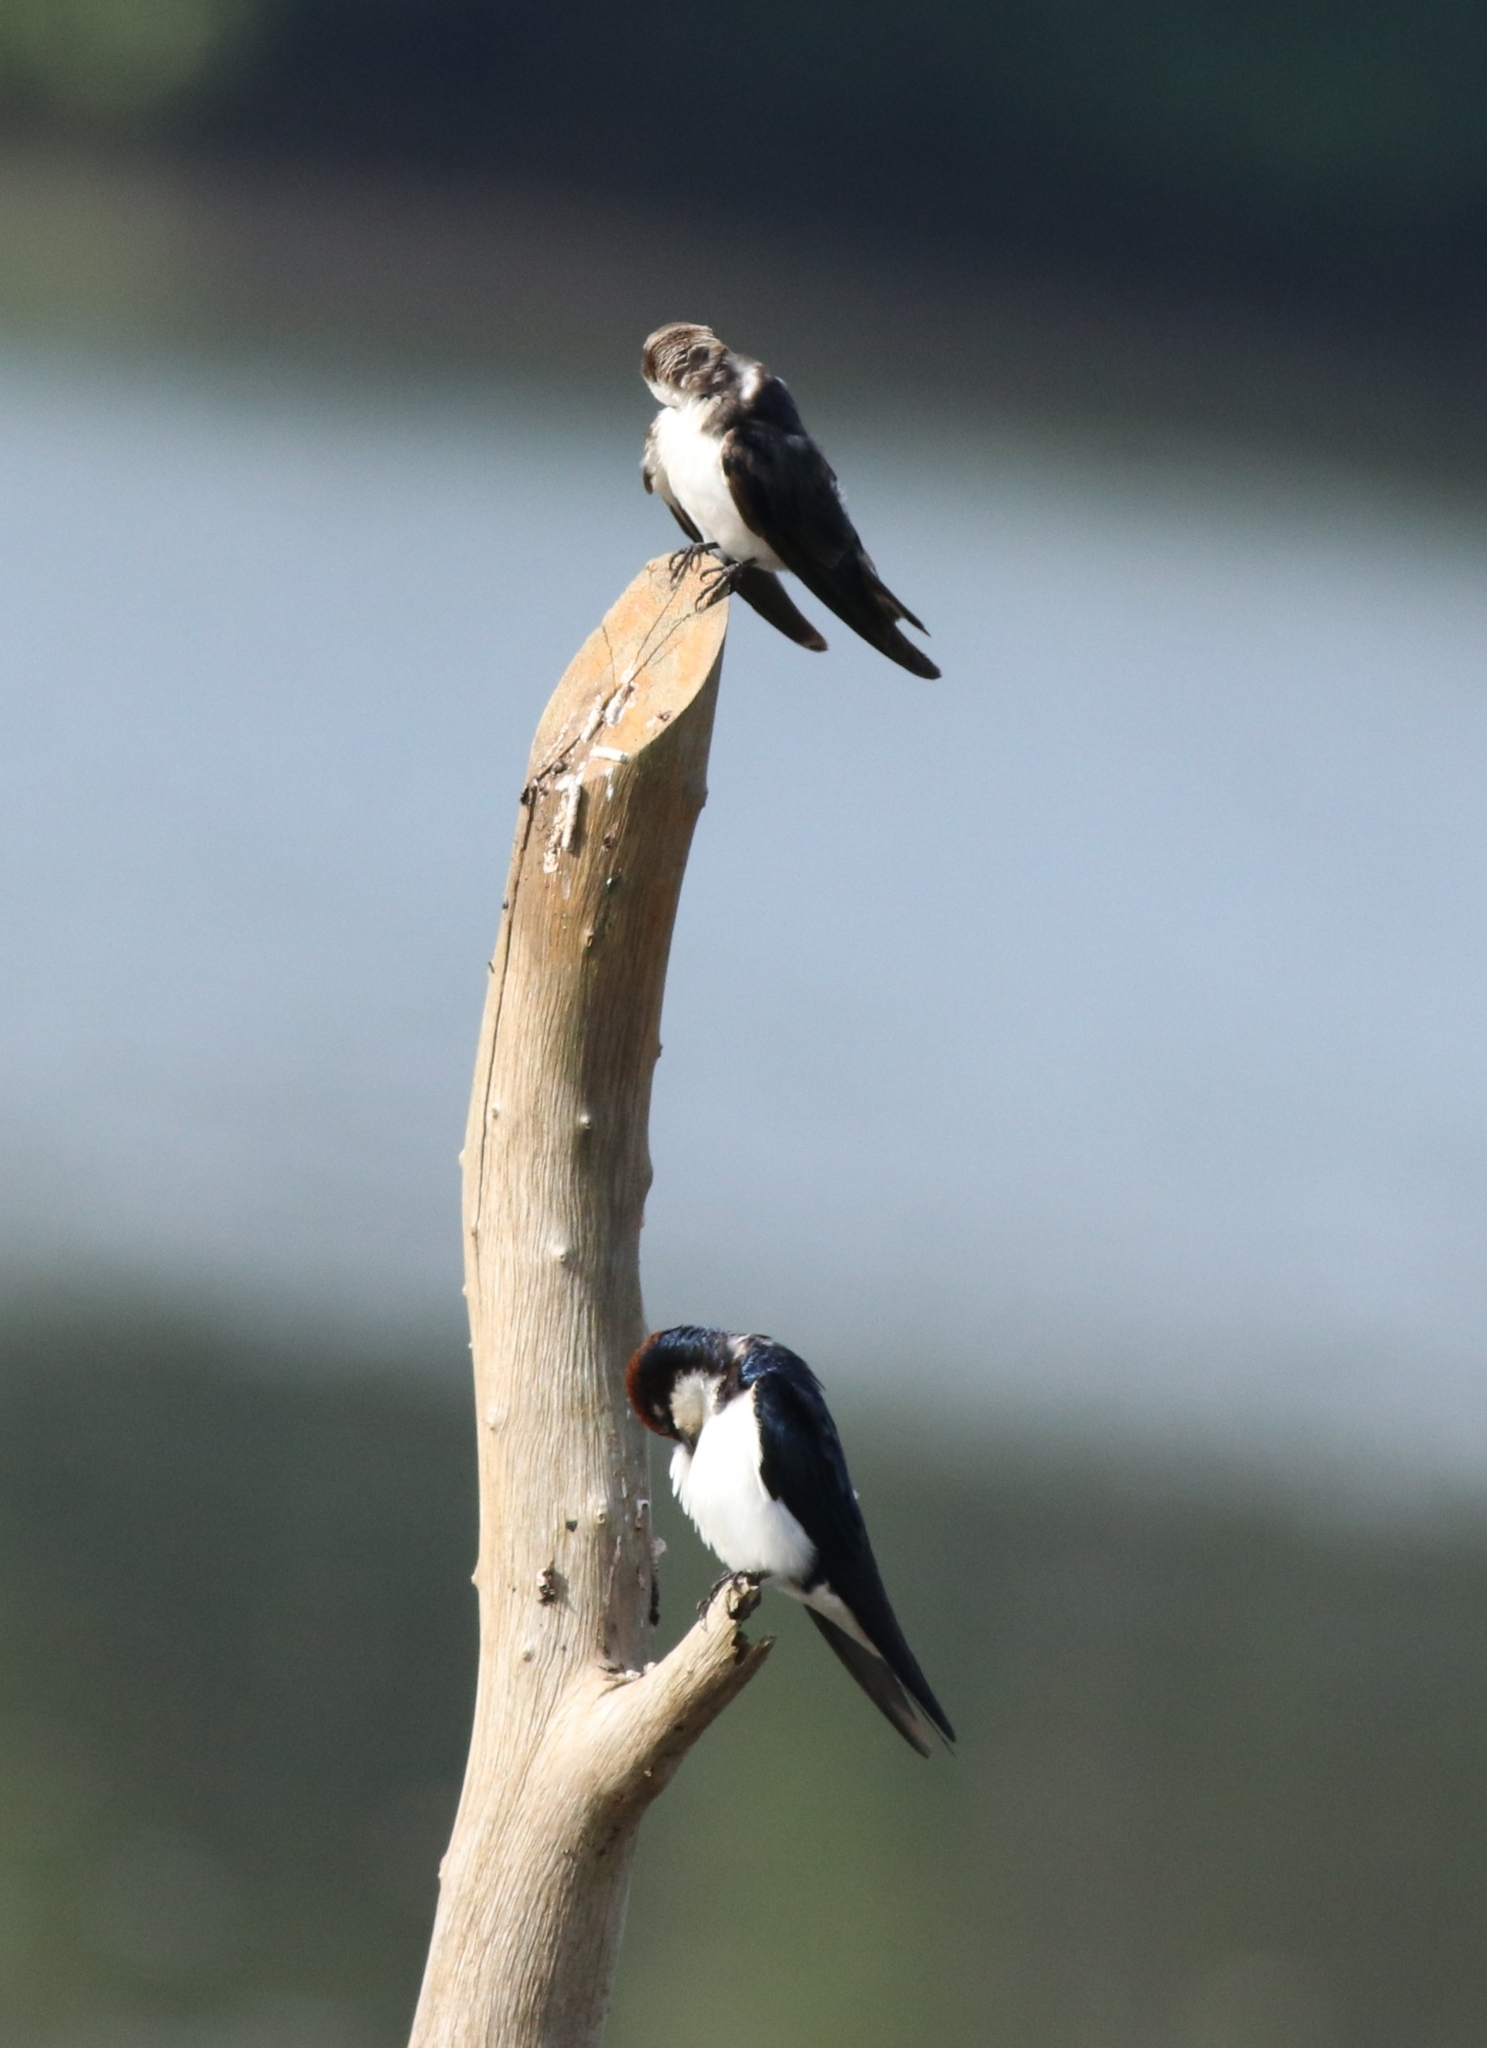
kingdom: Animalia
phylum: Chordata
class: Aves
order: Passeriformes
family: Hirundinidae
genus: Hirundo
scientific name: Hirundo smithii
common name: Wire-tailed swallow
